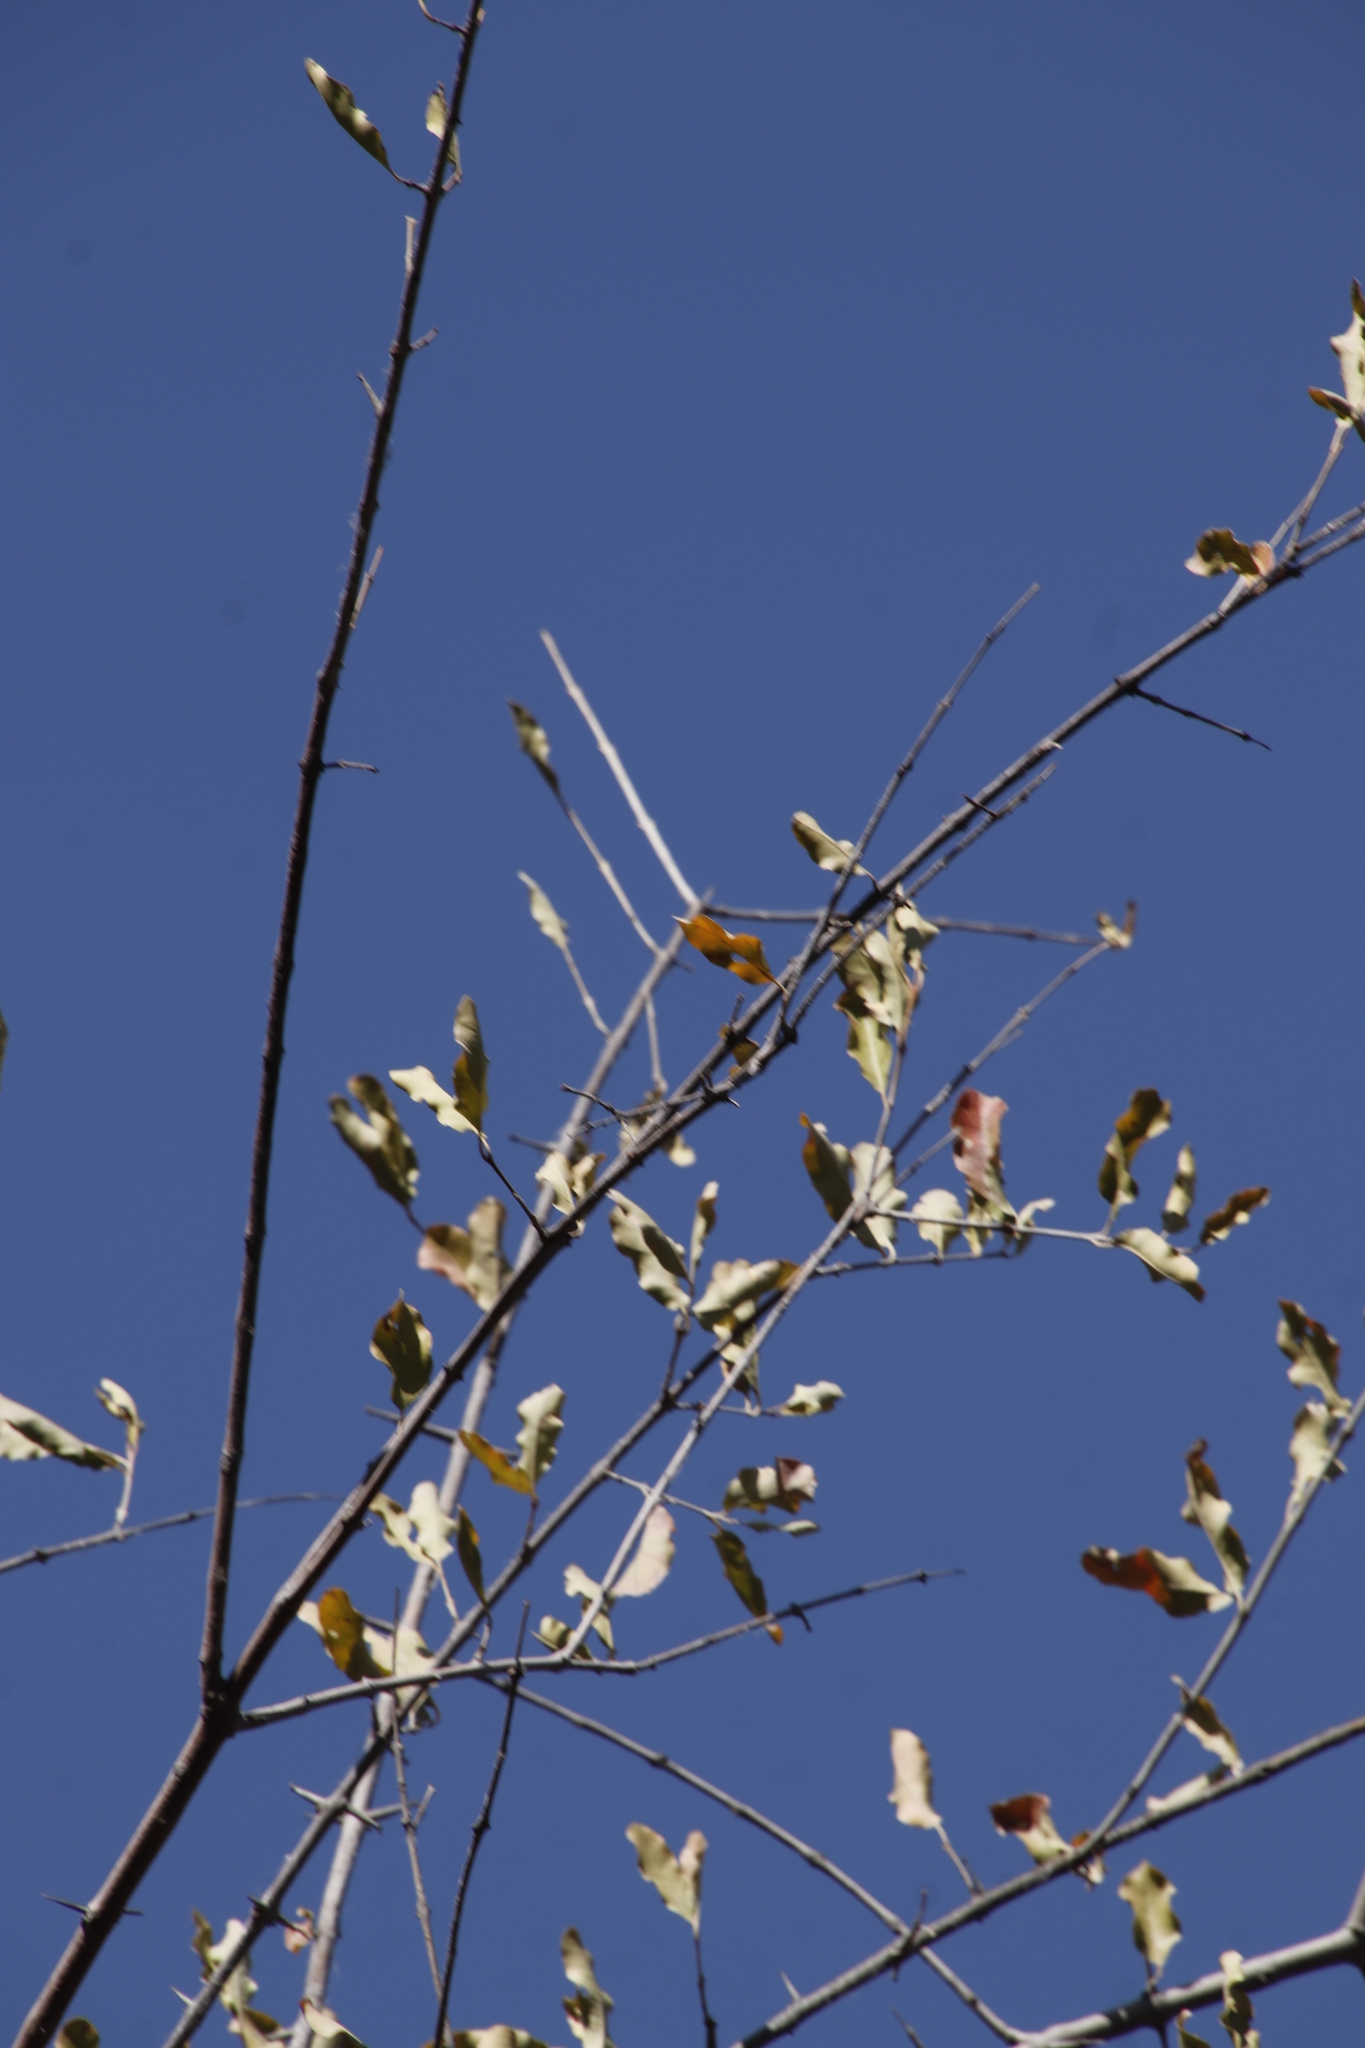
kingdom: Plantae
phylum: Tracheophyta
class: Magnoliopsida
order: Myrtales
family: Combretaceae
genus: Combretum
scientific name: Combretum imberbe
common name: Leadwood
